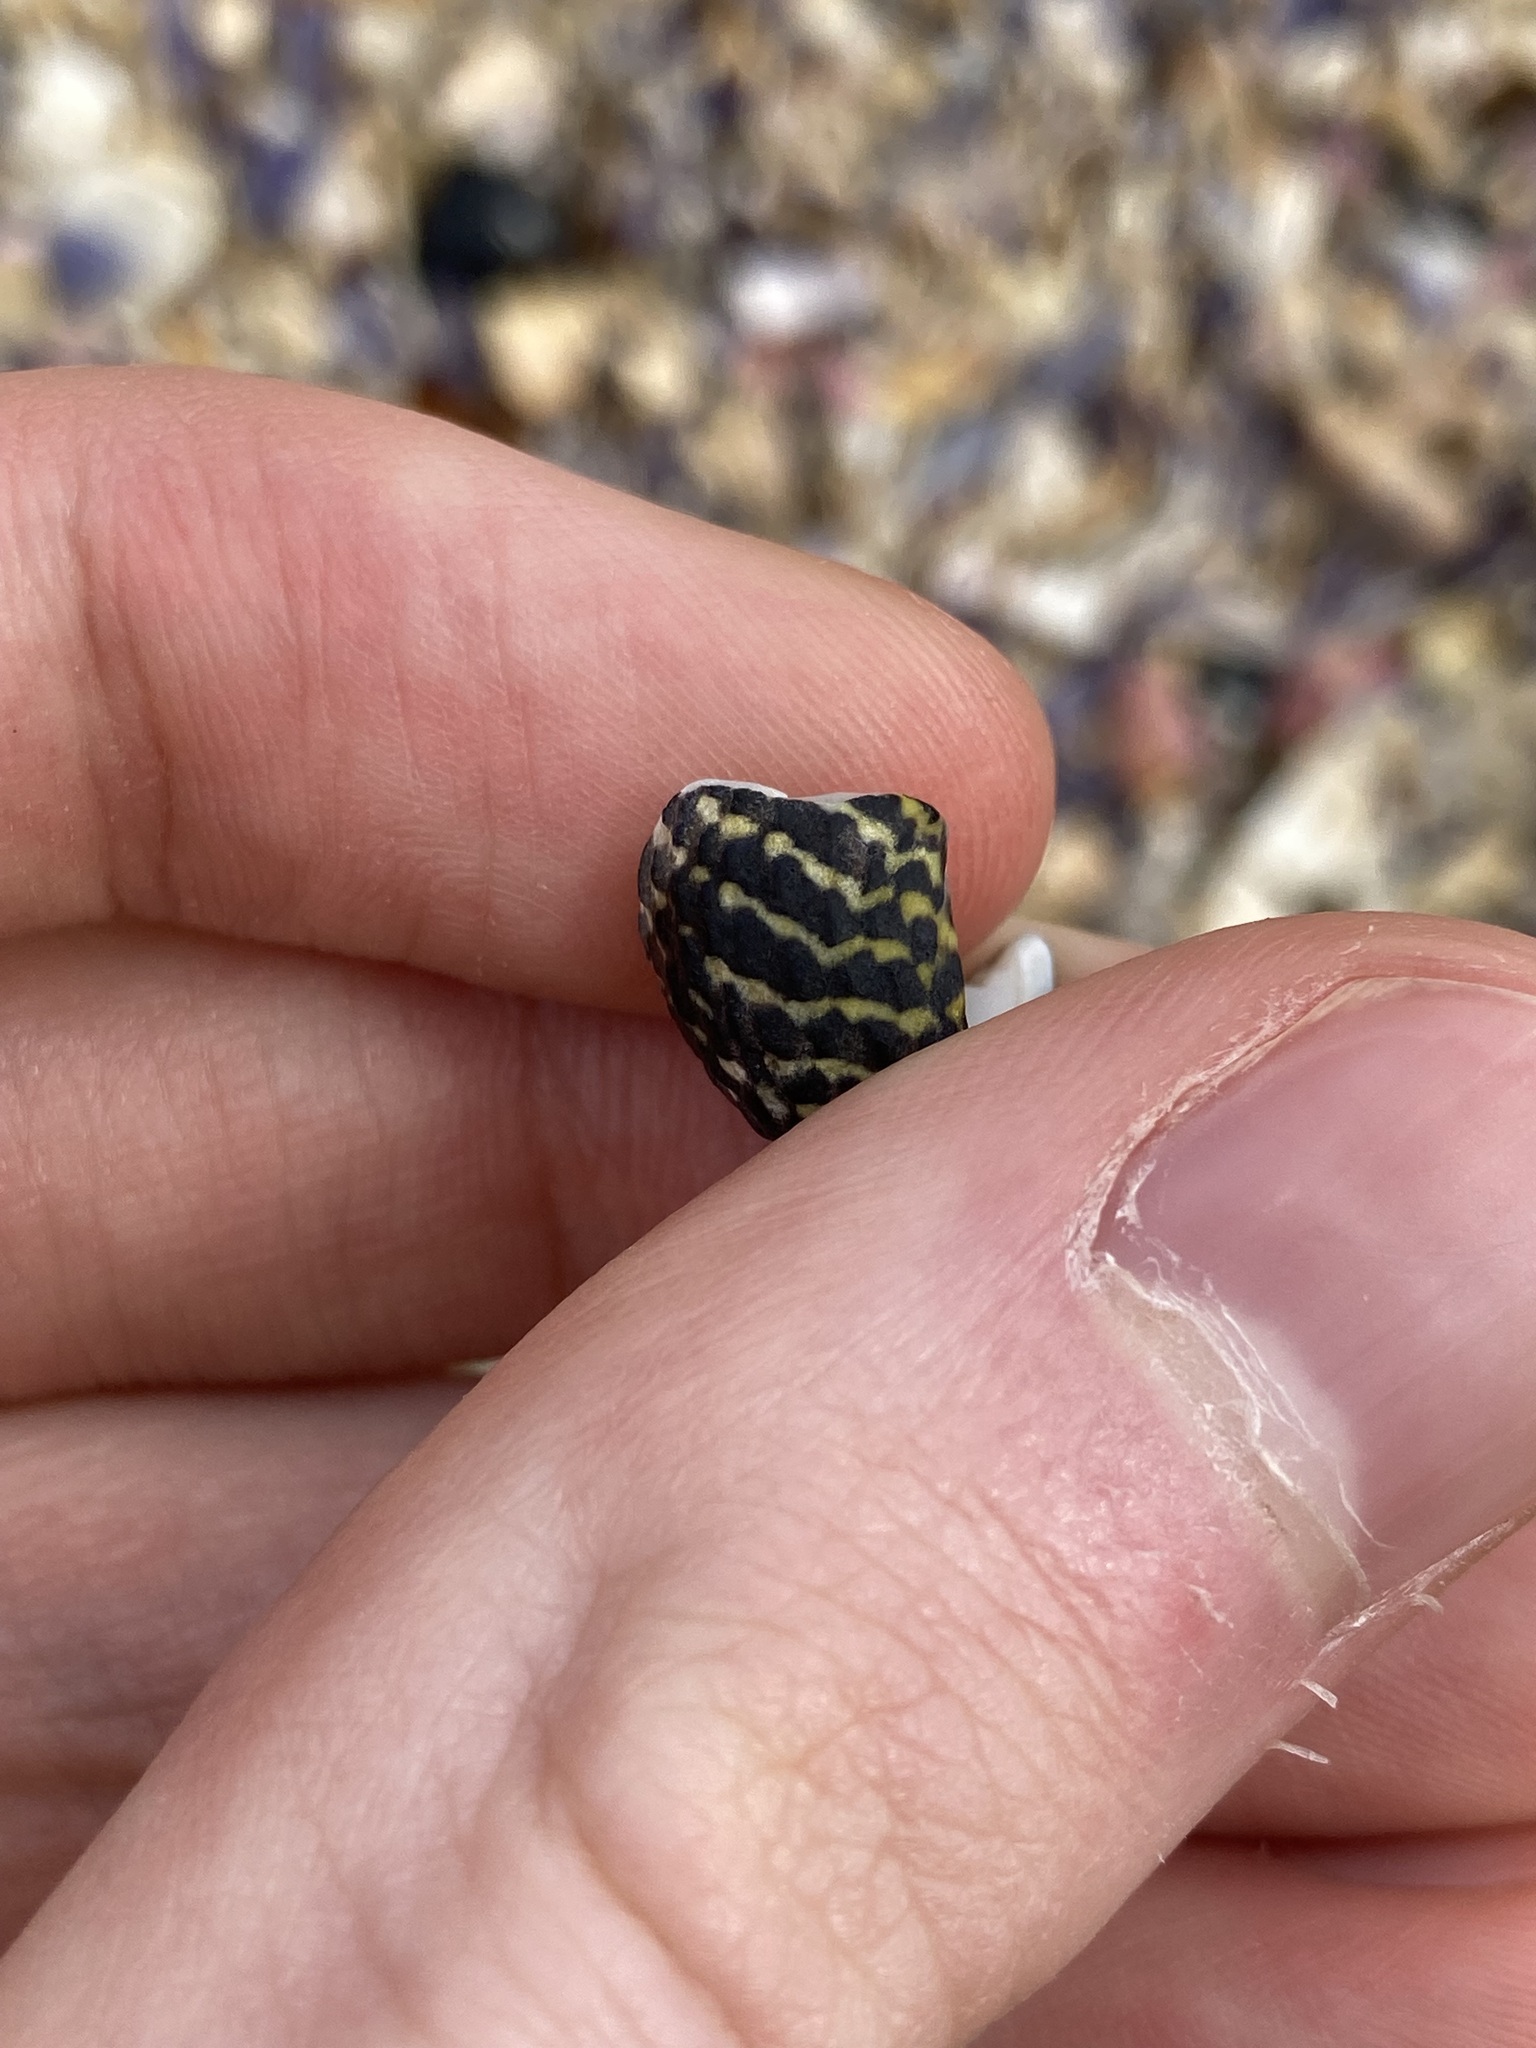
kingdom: Animalia
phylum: Mollusca
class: Gastropoda
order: Trochida
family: Trochidae
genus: Diloma
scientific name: Diloma concameratum
